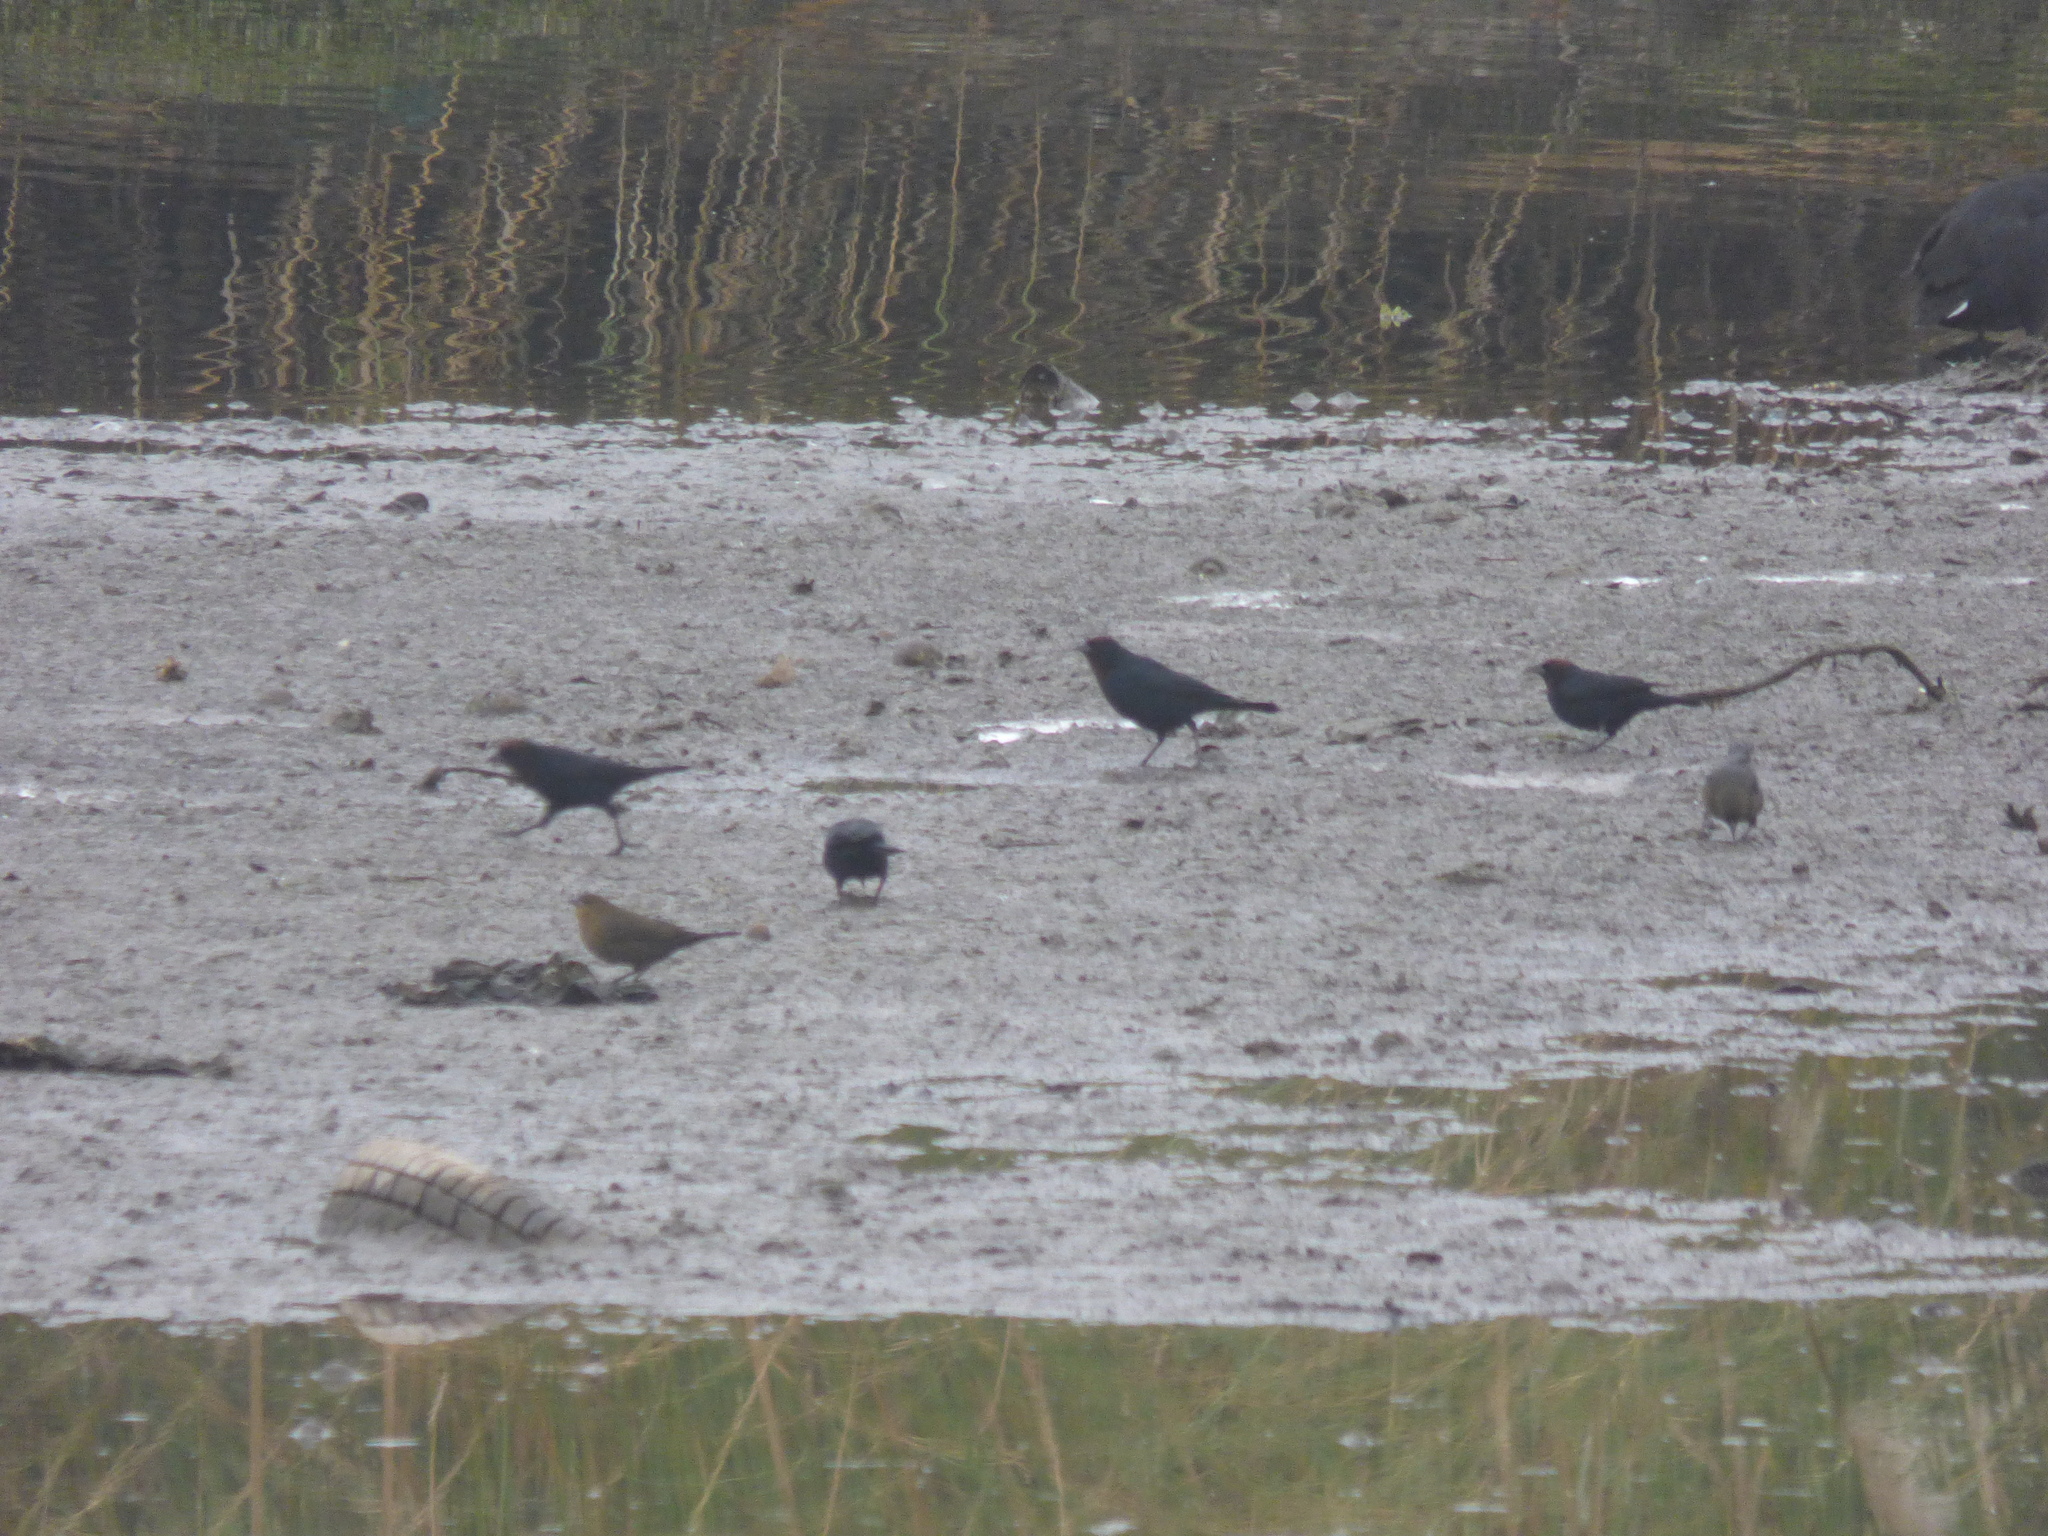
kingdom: Animalia
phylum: Chordata
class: Aves
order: Passeriformes
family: Icteridae
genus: Chrysomus
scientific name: Chrysomus ruficapillus
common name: Chestnut-capped blackbird
